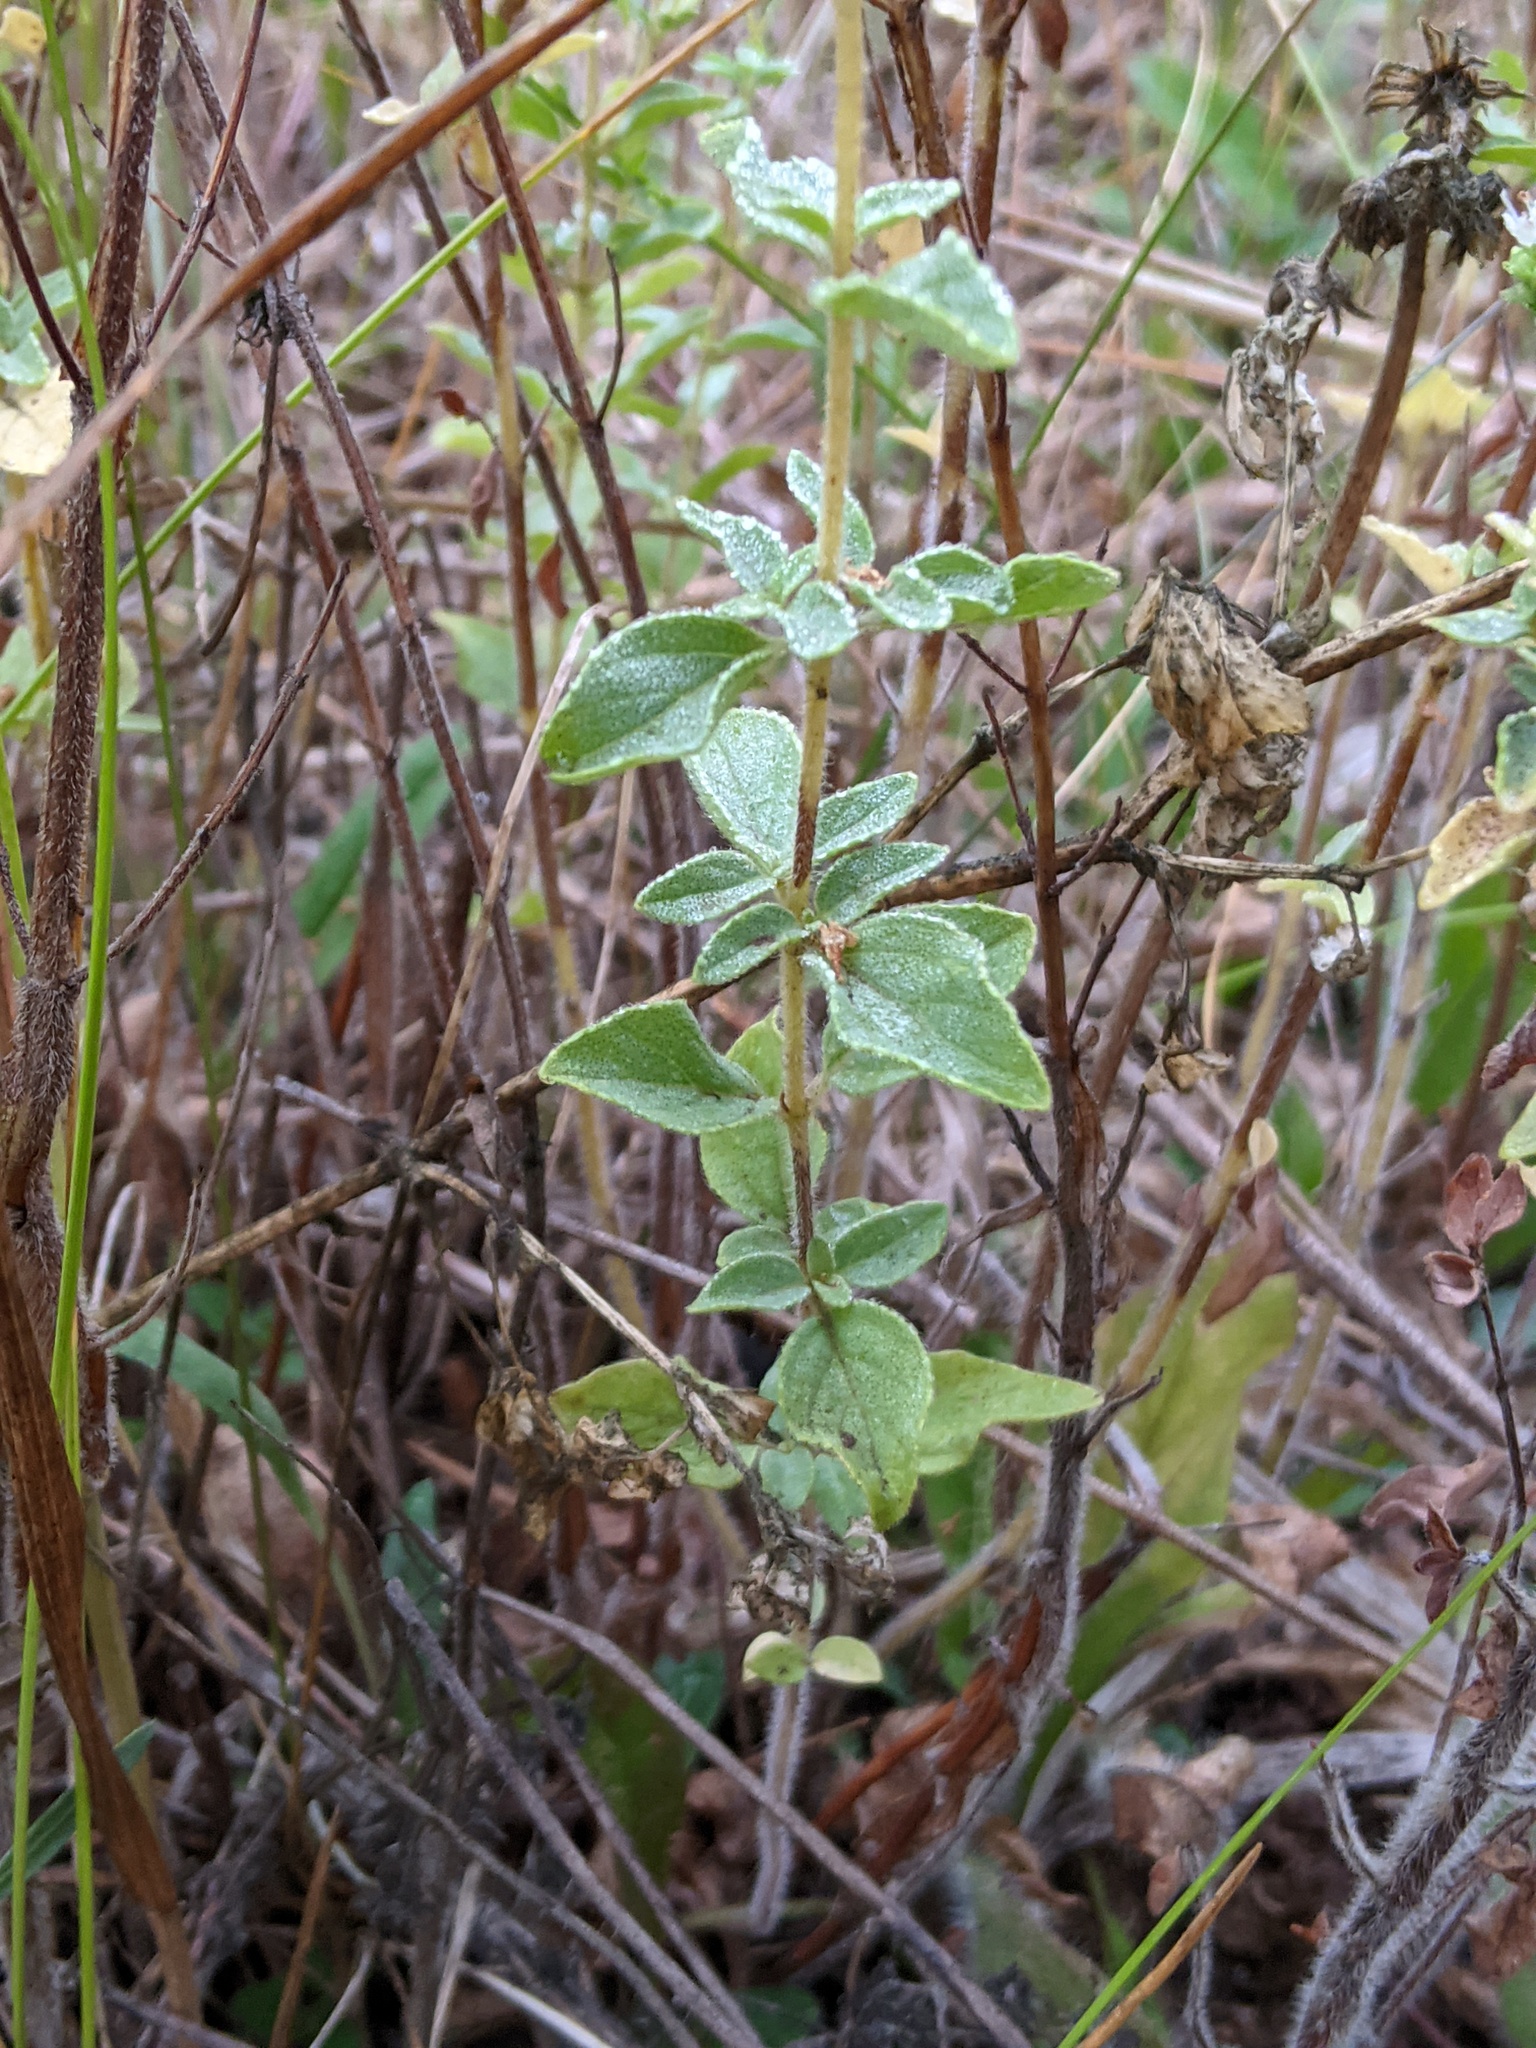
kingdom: Plantae
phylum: Tracheophyta
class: Magnoliopsida
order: Lamiales
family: Lamiaceae
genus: Origanum
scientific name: Origanum vulgare
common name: Wild marjoram
